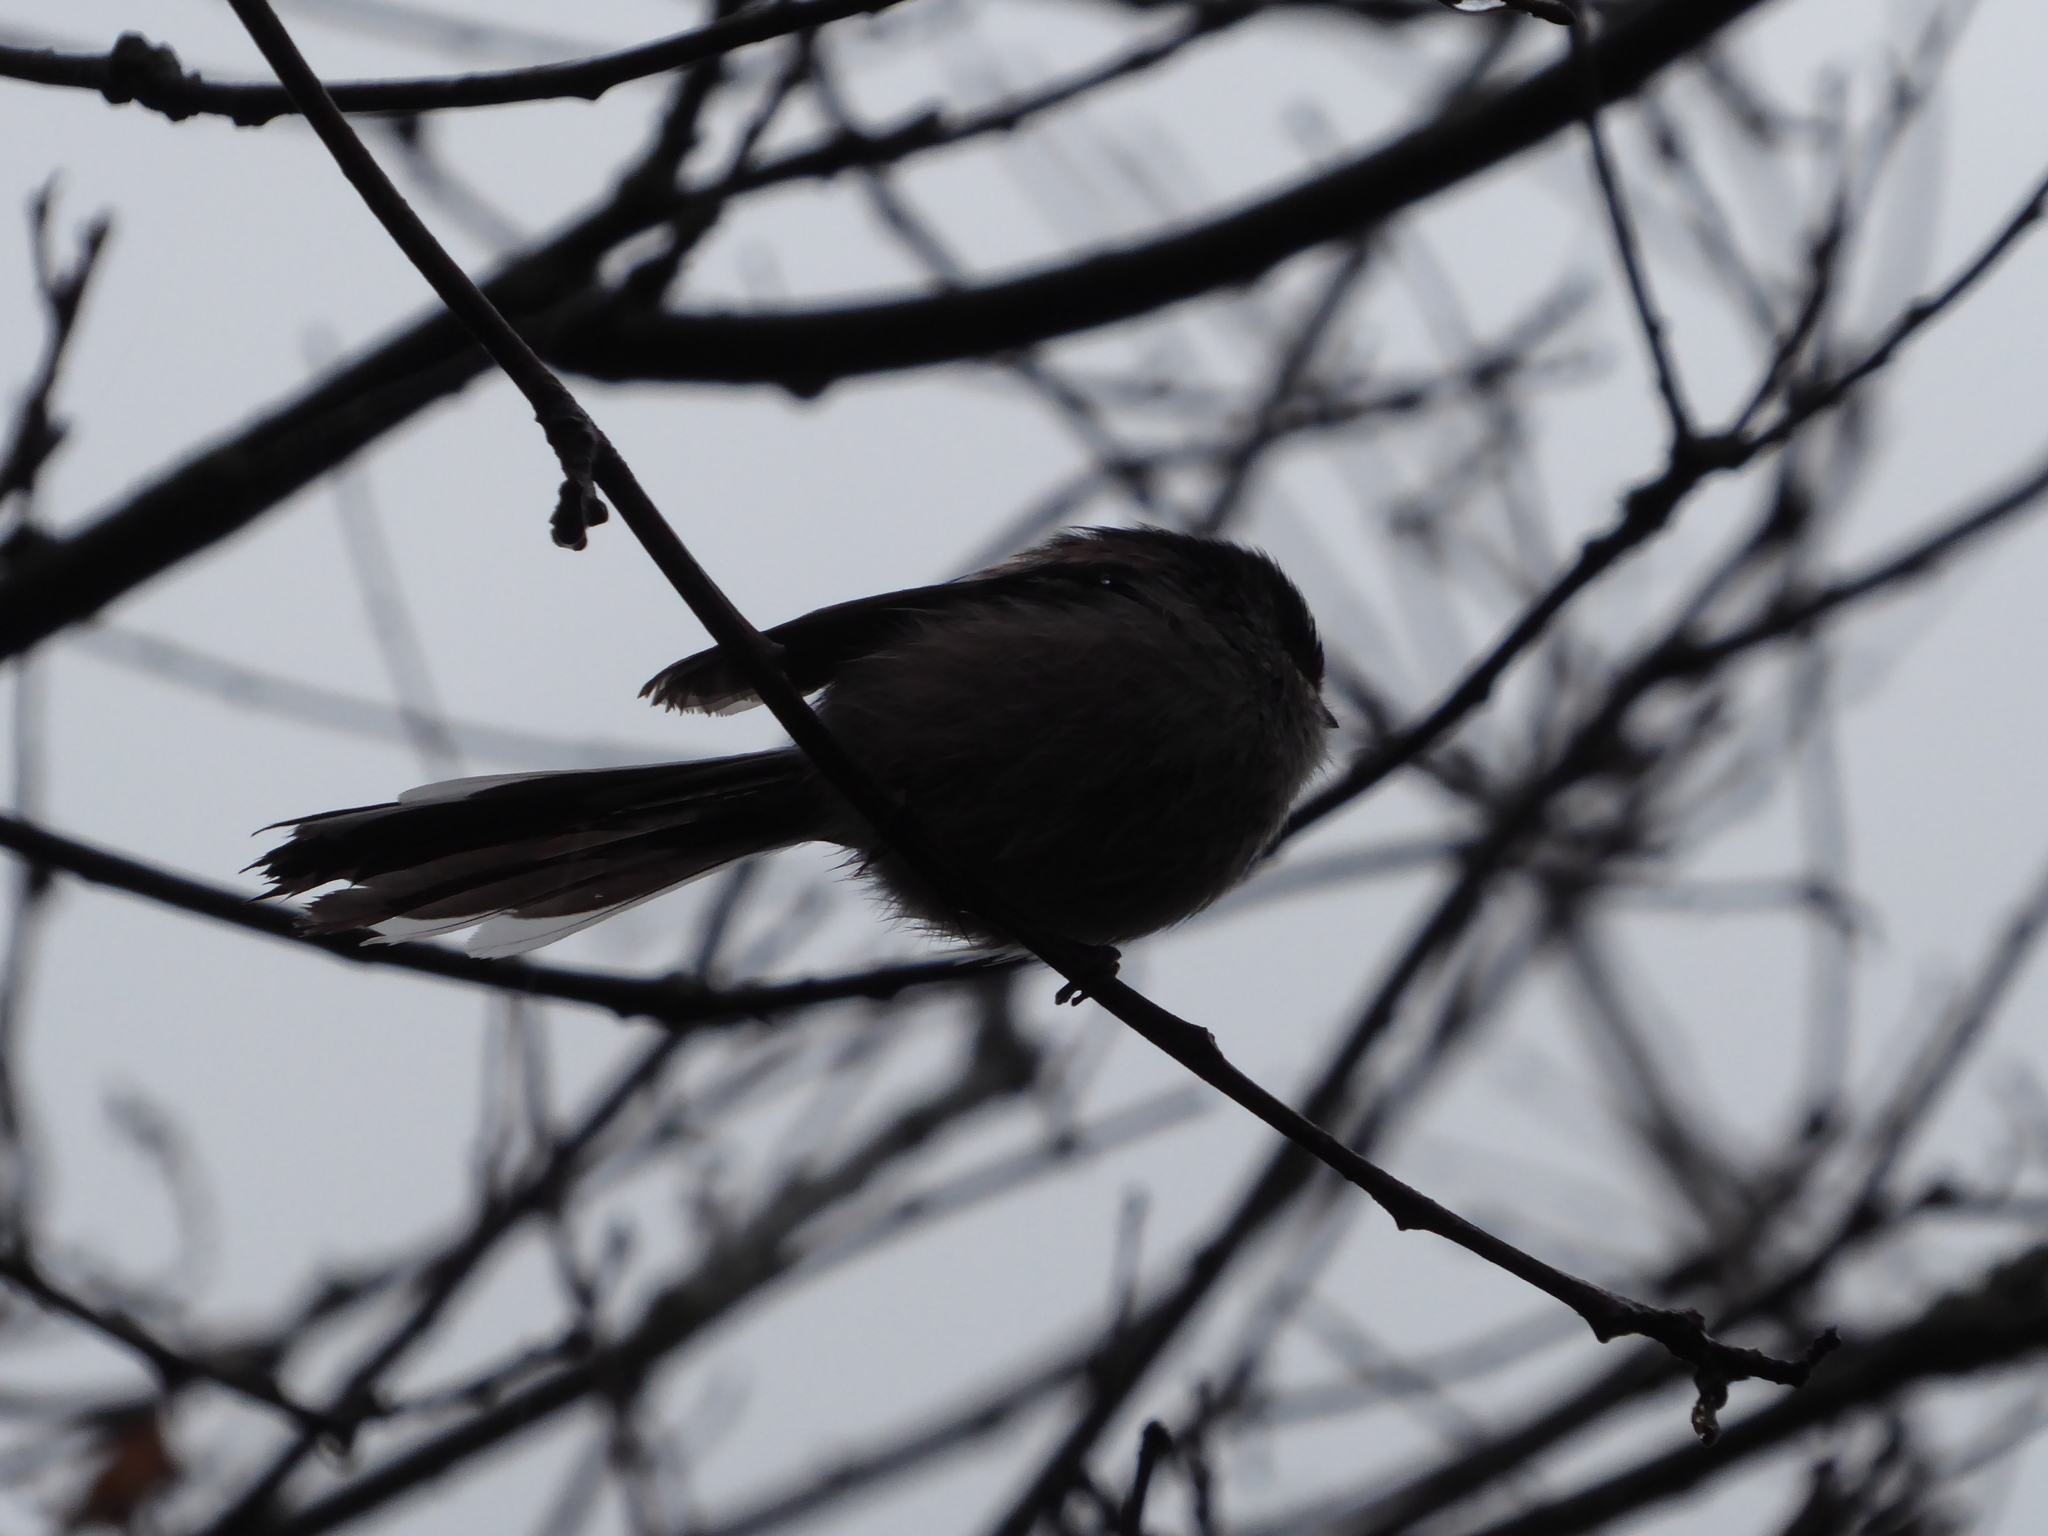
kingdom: Animalia
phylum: Chordata
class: Aves
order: Passeriformes
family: Aegithalidae
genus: Aegithalos
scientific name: Aegithalos caudatus
